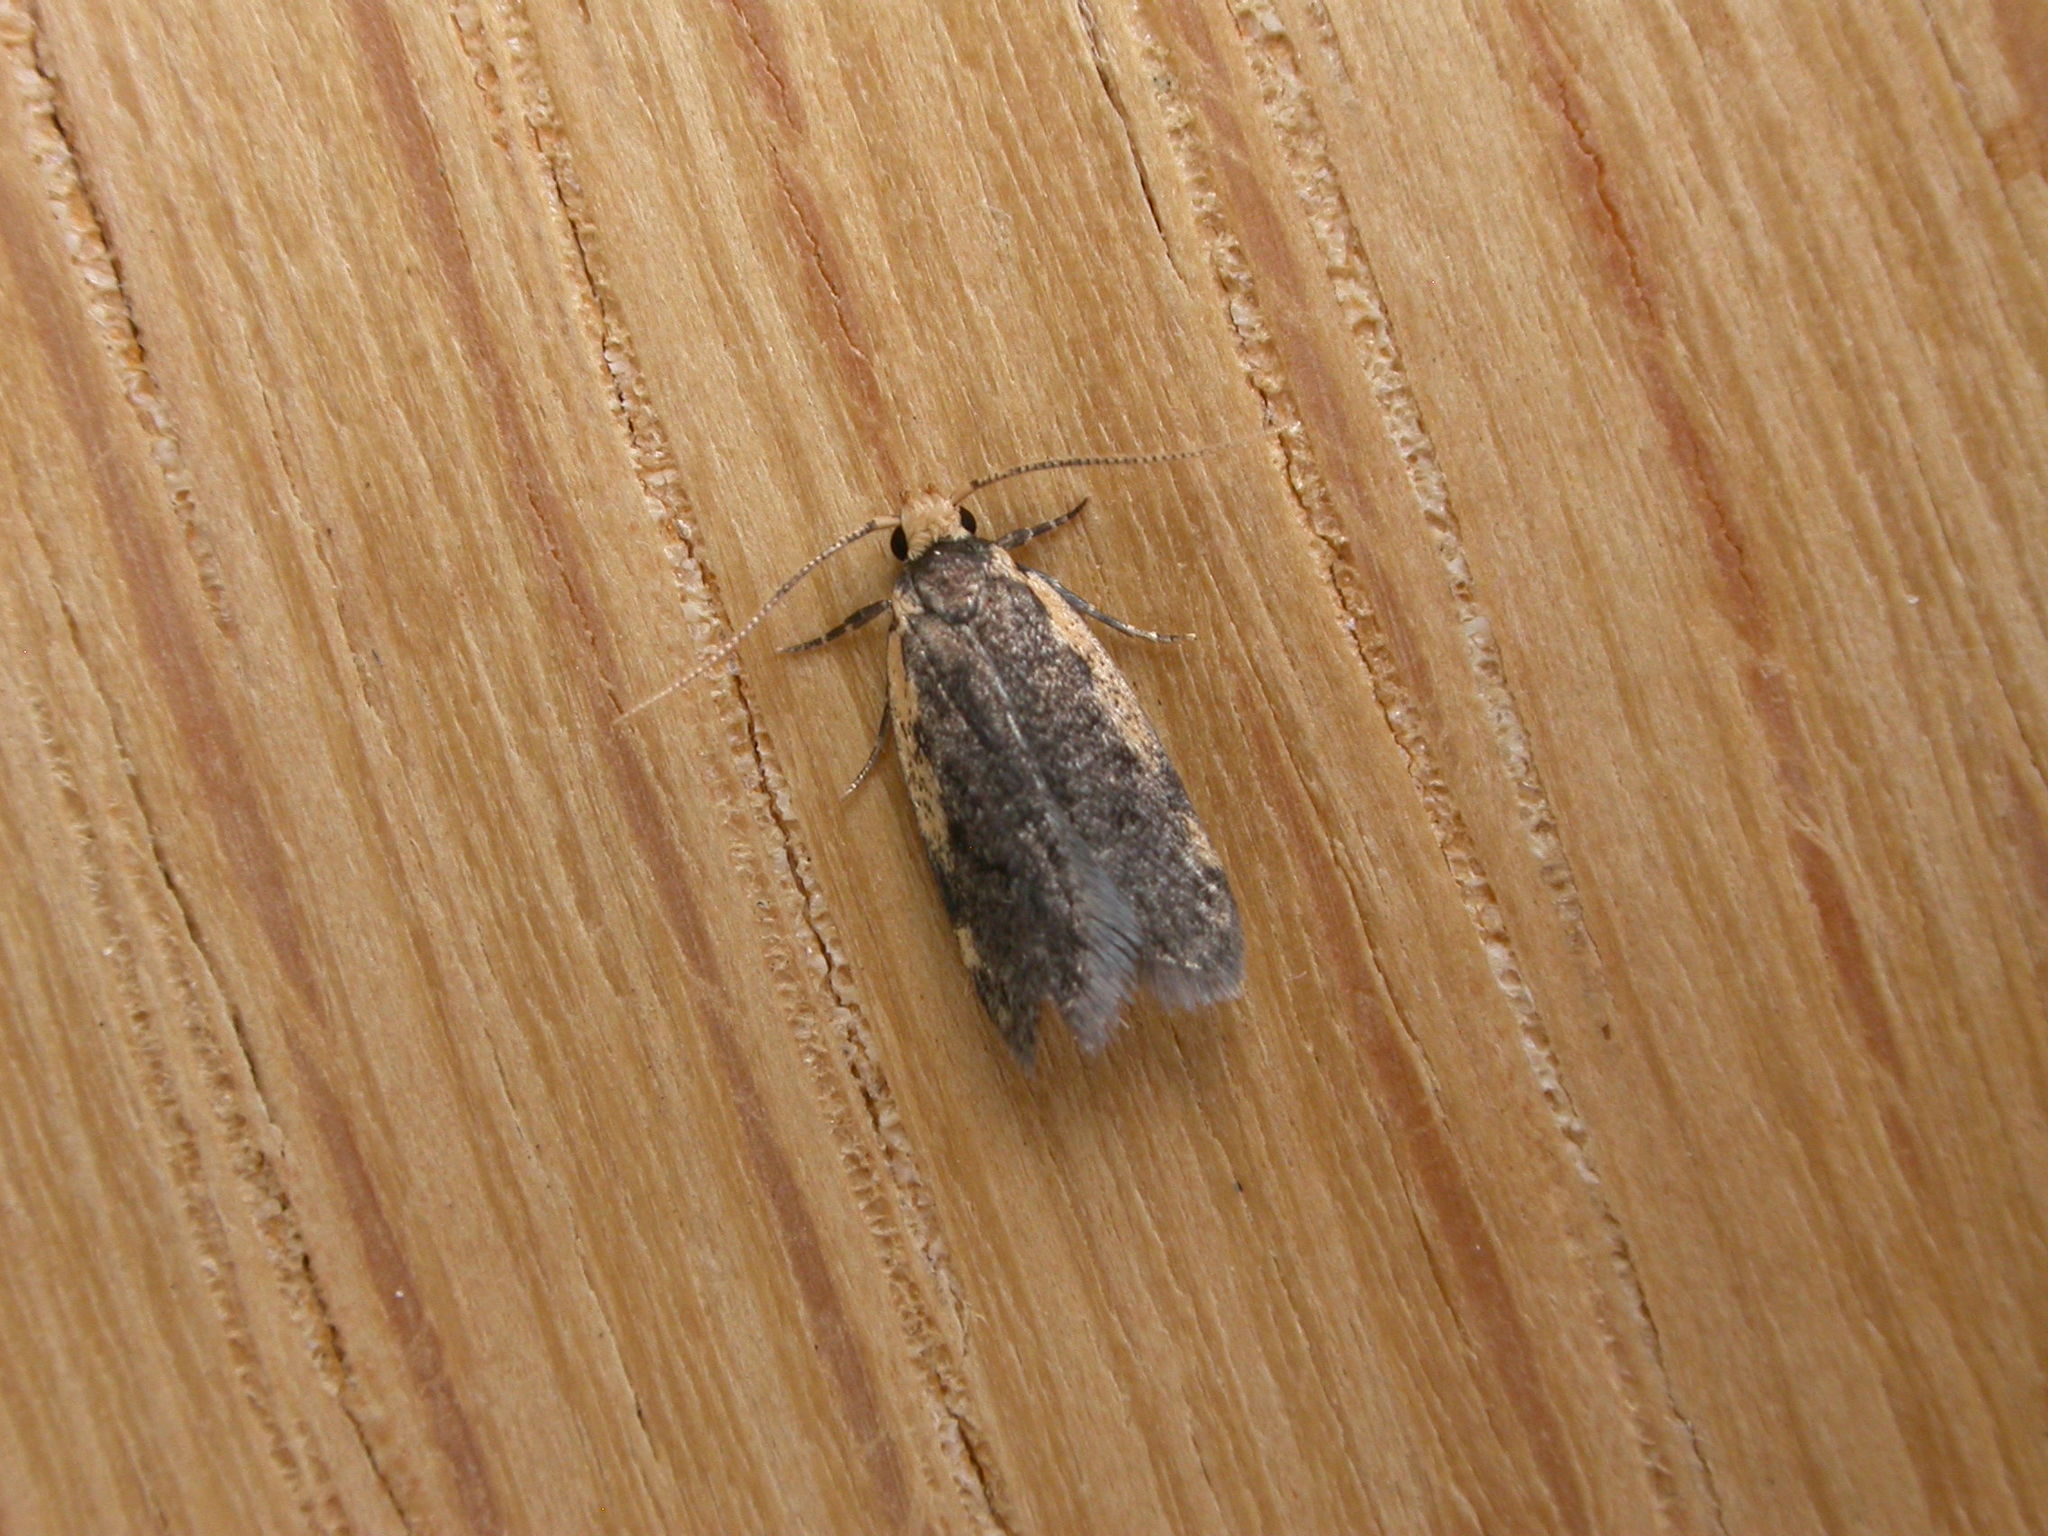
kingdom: Animalia
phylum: Arthropoda
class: Insecta
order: Lepidoptera
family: Oecophoridae
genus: Hoplostega
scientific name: Hoplostega ochroma
